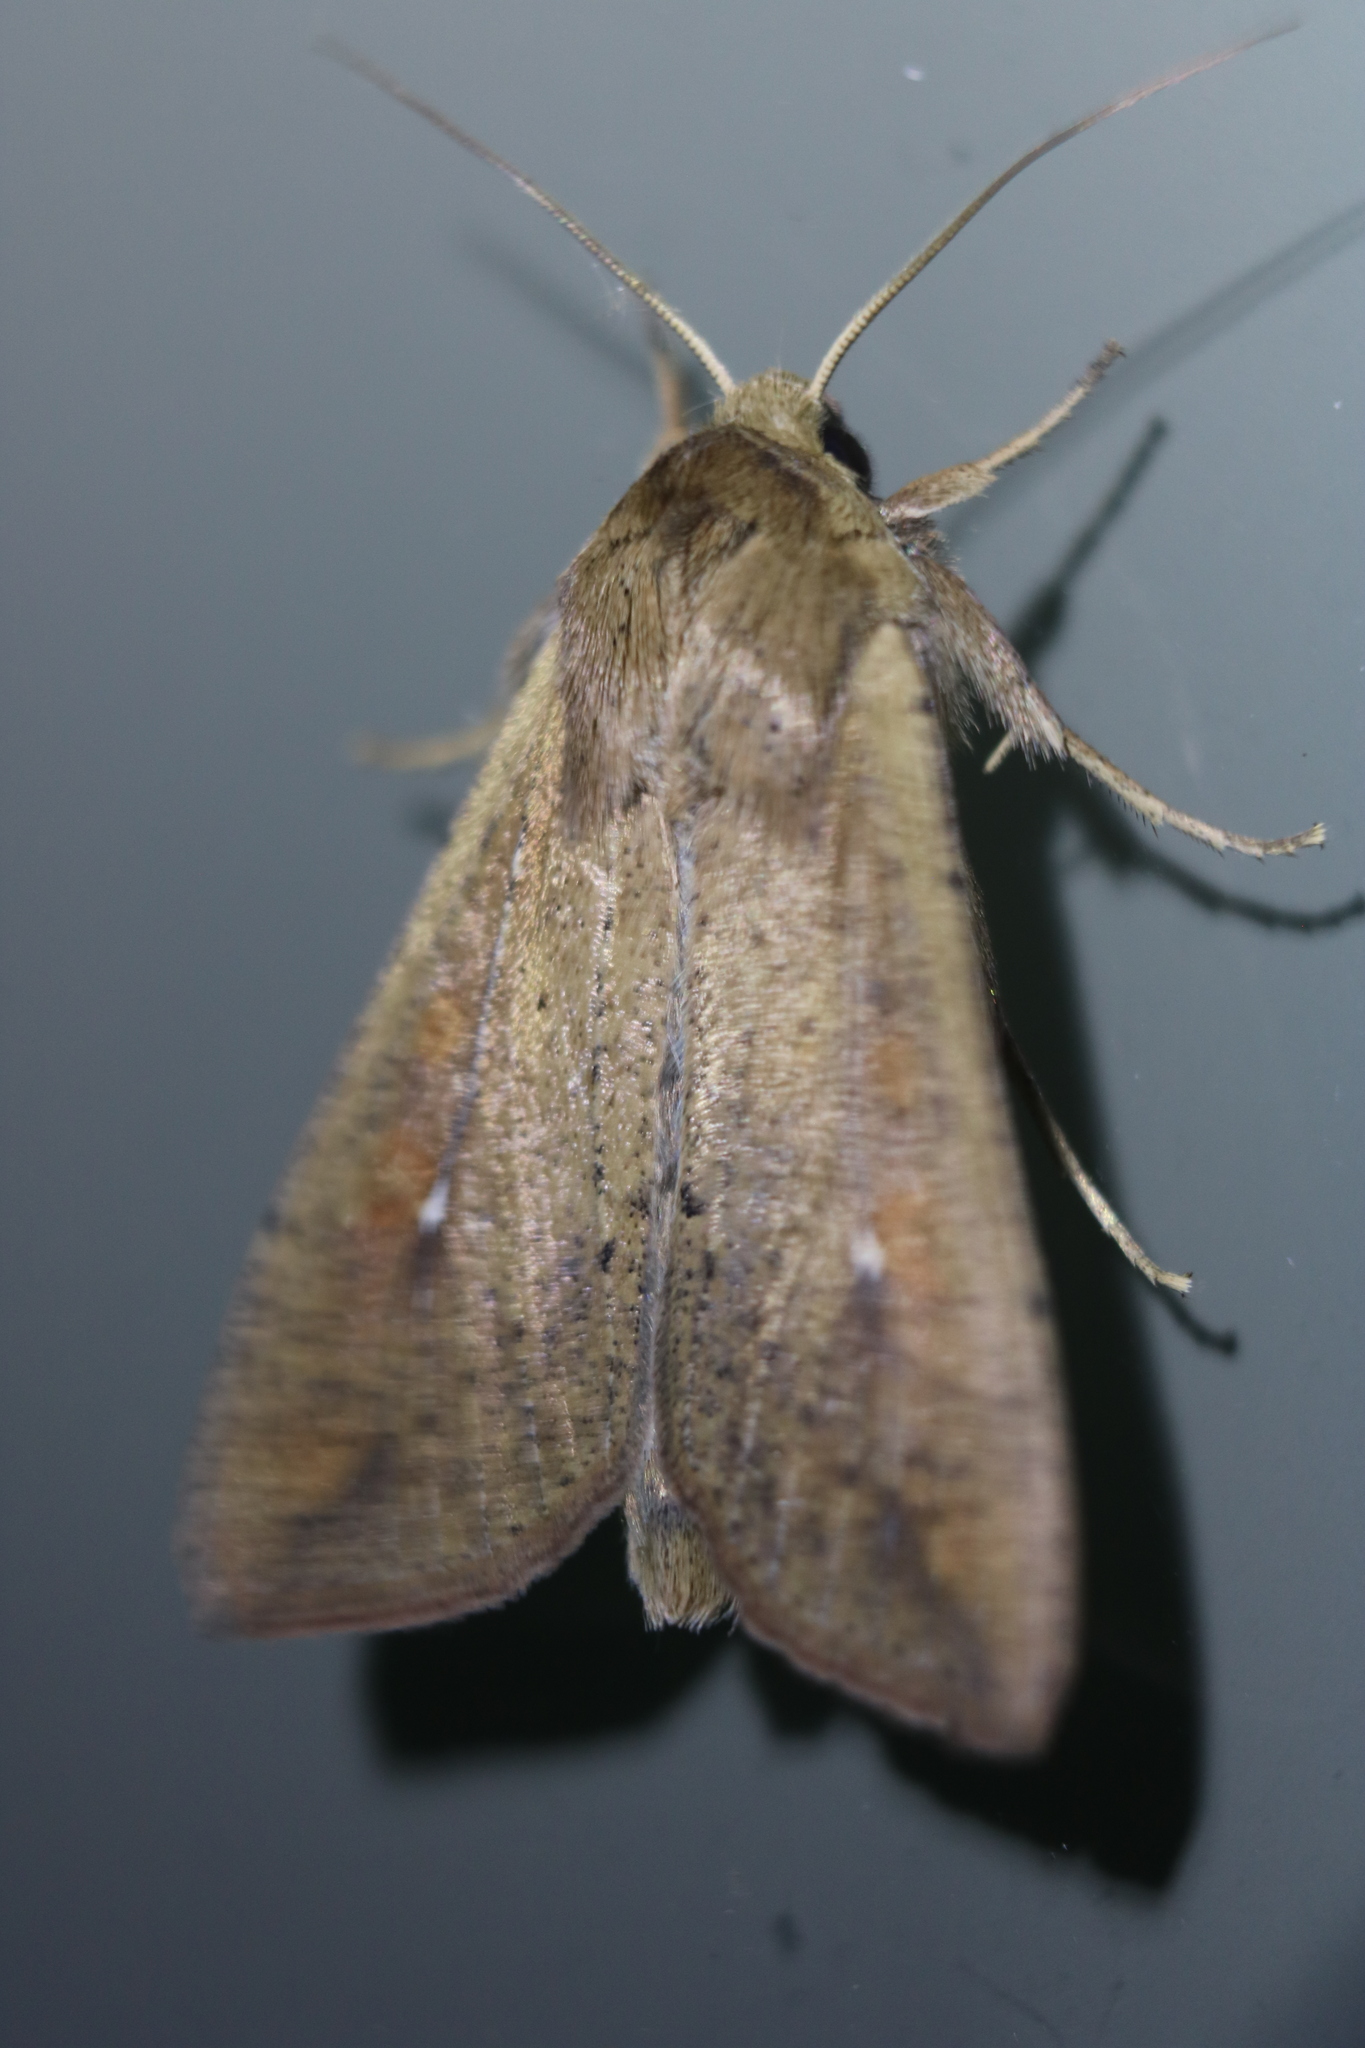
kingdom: Animalia
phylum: Arthropoda
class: Insecta
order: Lepidoptera
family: Noctuidae
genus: Mythimna
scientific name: Mythimna unipuncta
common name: White-speck
